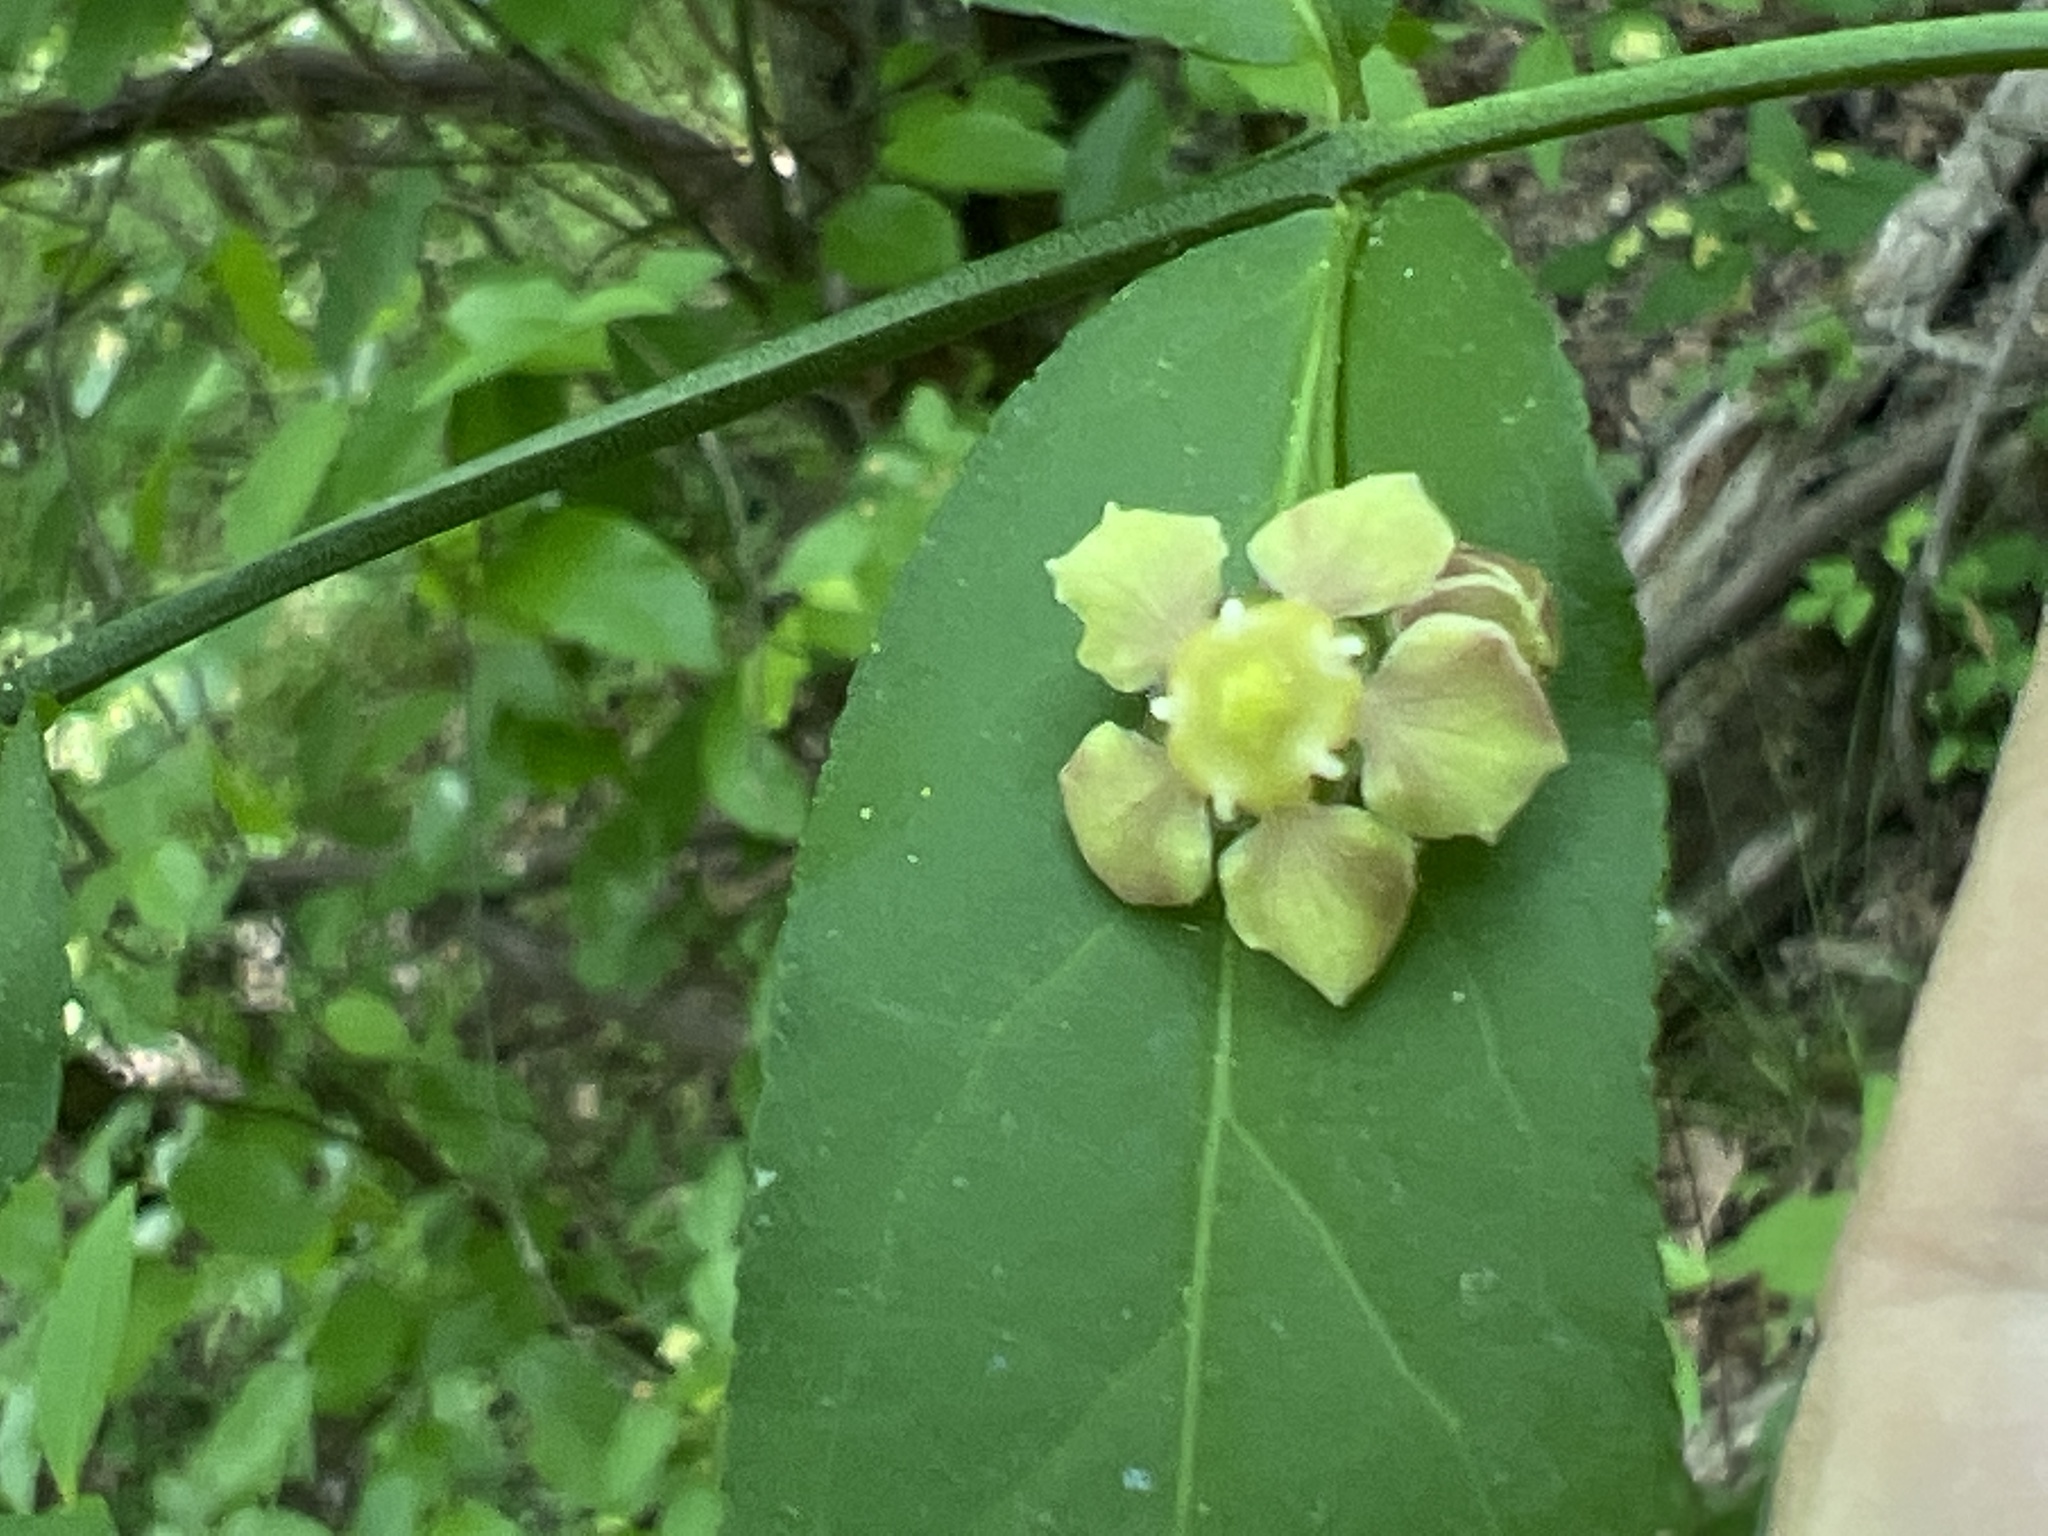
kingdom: Plantae
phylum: Tracheophyta
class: Magnoliopsida
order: Celastrales
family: Celastraceae
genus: Euonymus
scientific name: Euonymus americanus
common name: Bursting-heart
